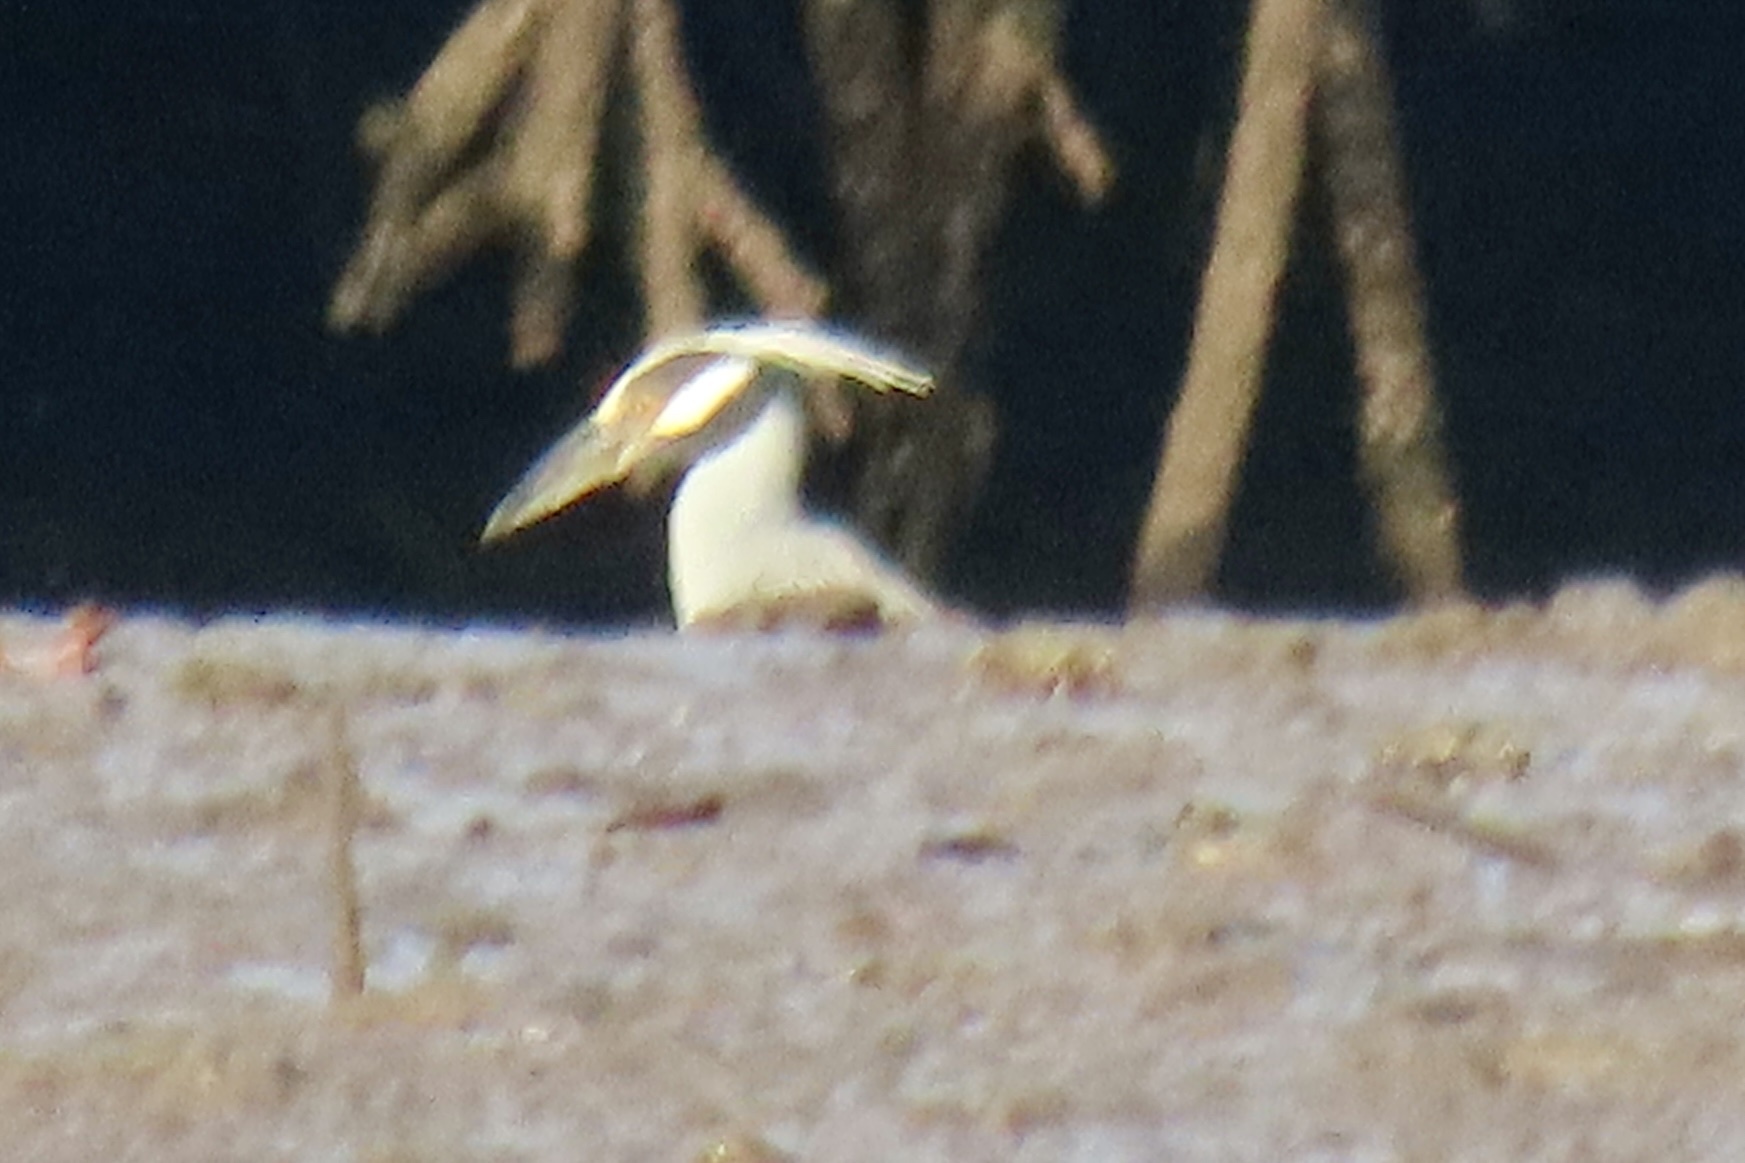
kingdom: Animalia
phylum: Chordata
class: Aves
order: Pelecaniformes
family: Ardeidae
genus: Nyctanassa
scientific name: Nyctanassa violacea
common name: Yellow-crowned night heron
